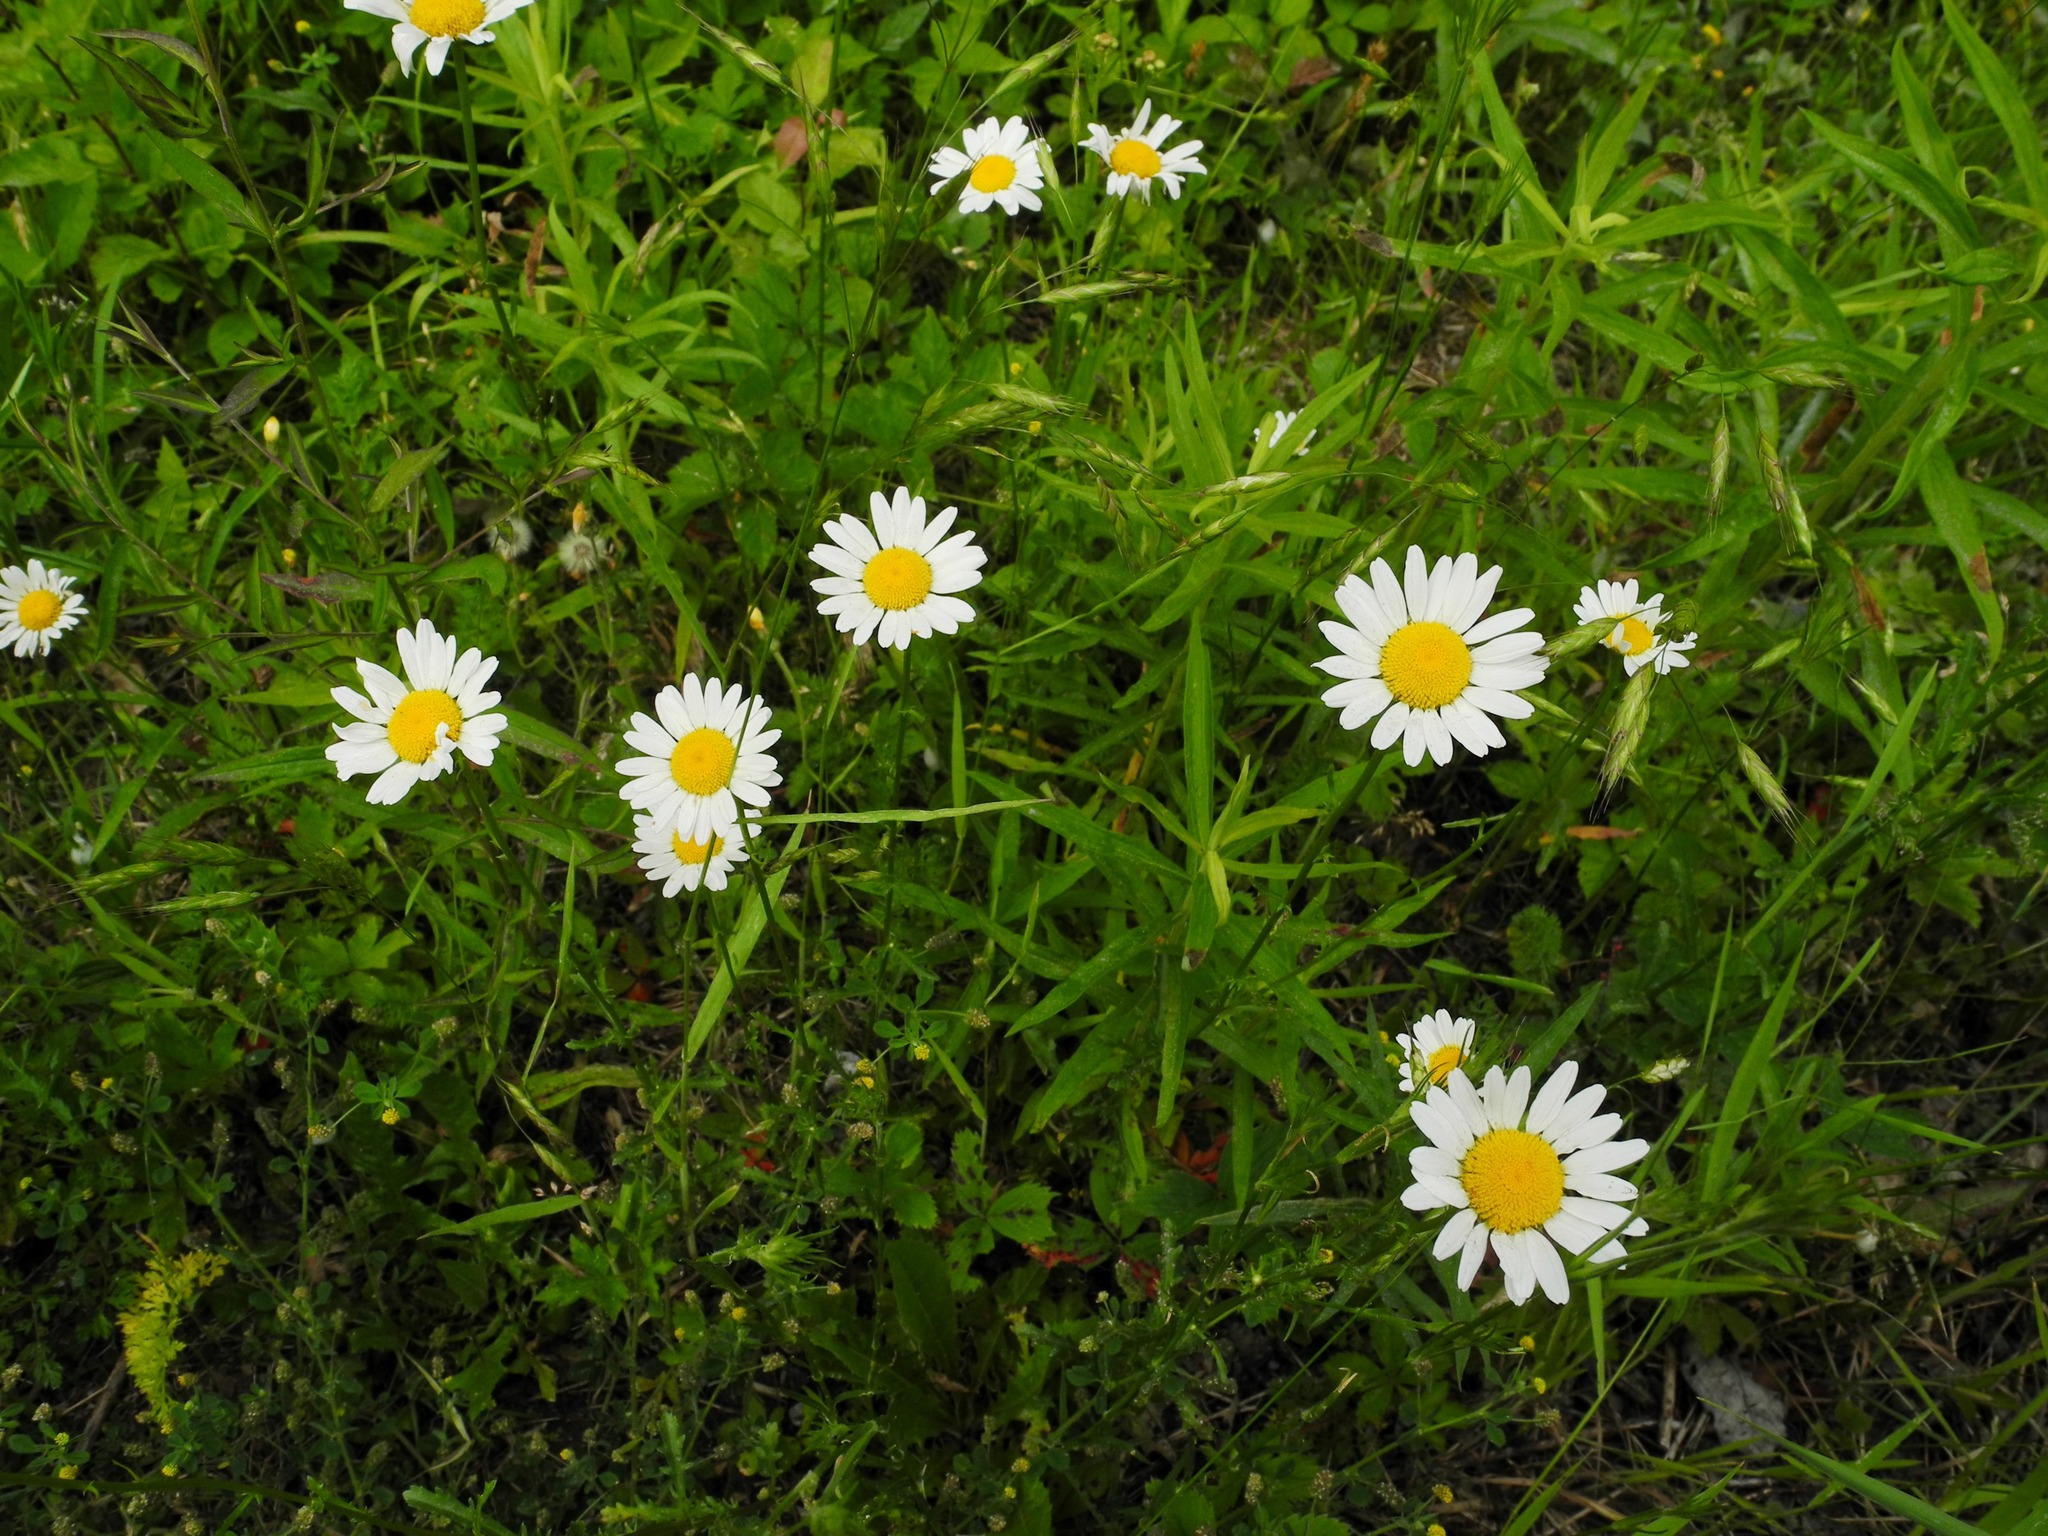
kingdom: Plantae
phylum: Tracheophyta
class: Magnoliopsida
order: Asterales
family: Asteraceae
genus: Leucanthemum
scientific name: Leucanthemum vulgare
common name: Oxeye daisy
